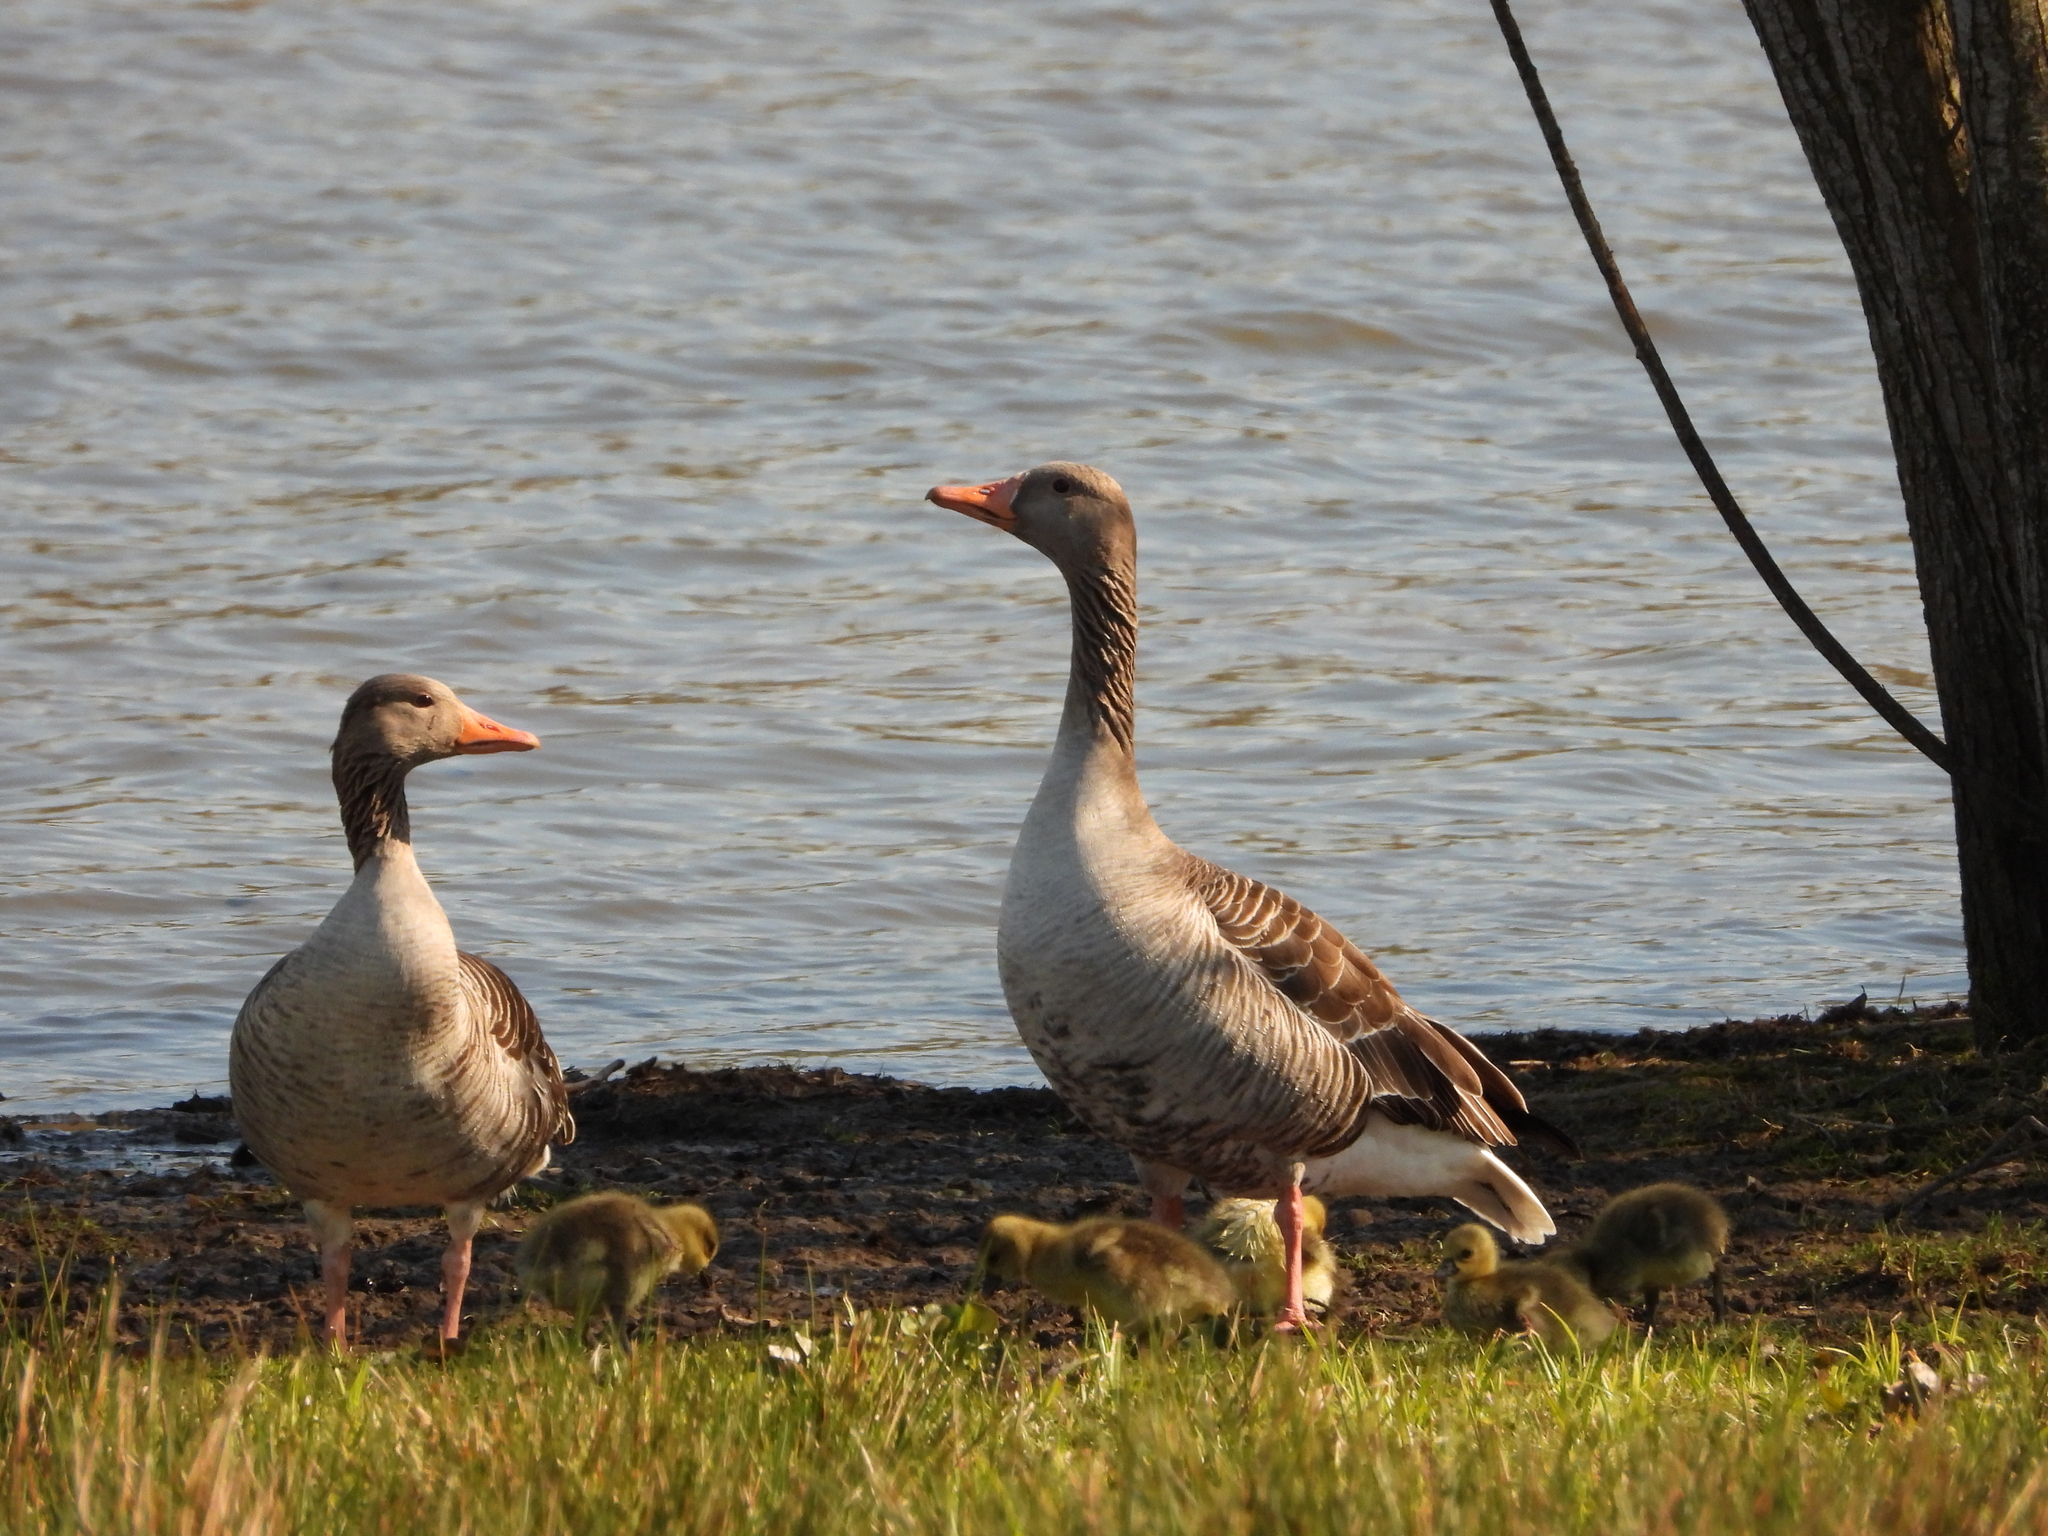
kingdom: Animalia
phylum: Chordata
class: Aves
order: Anseriformes
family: Anatidae
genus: Anser
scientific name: Anser anser
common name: Greylag goose
